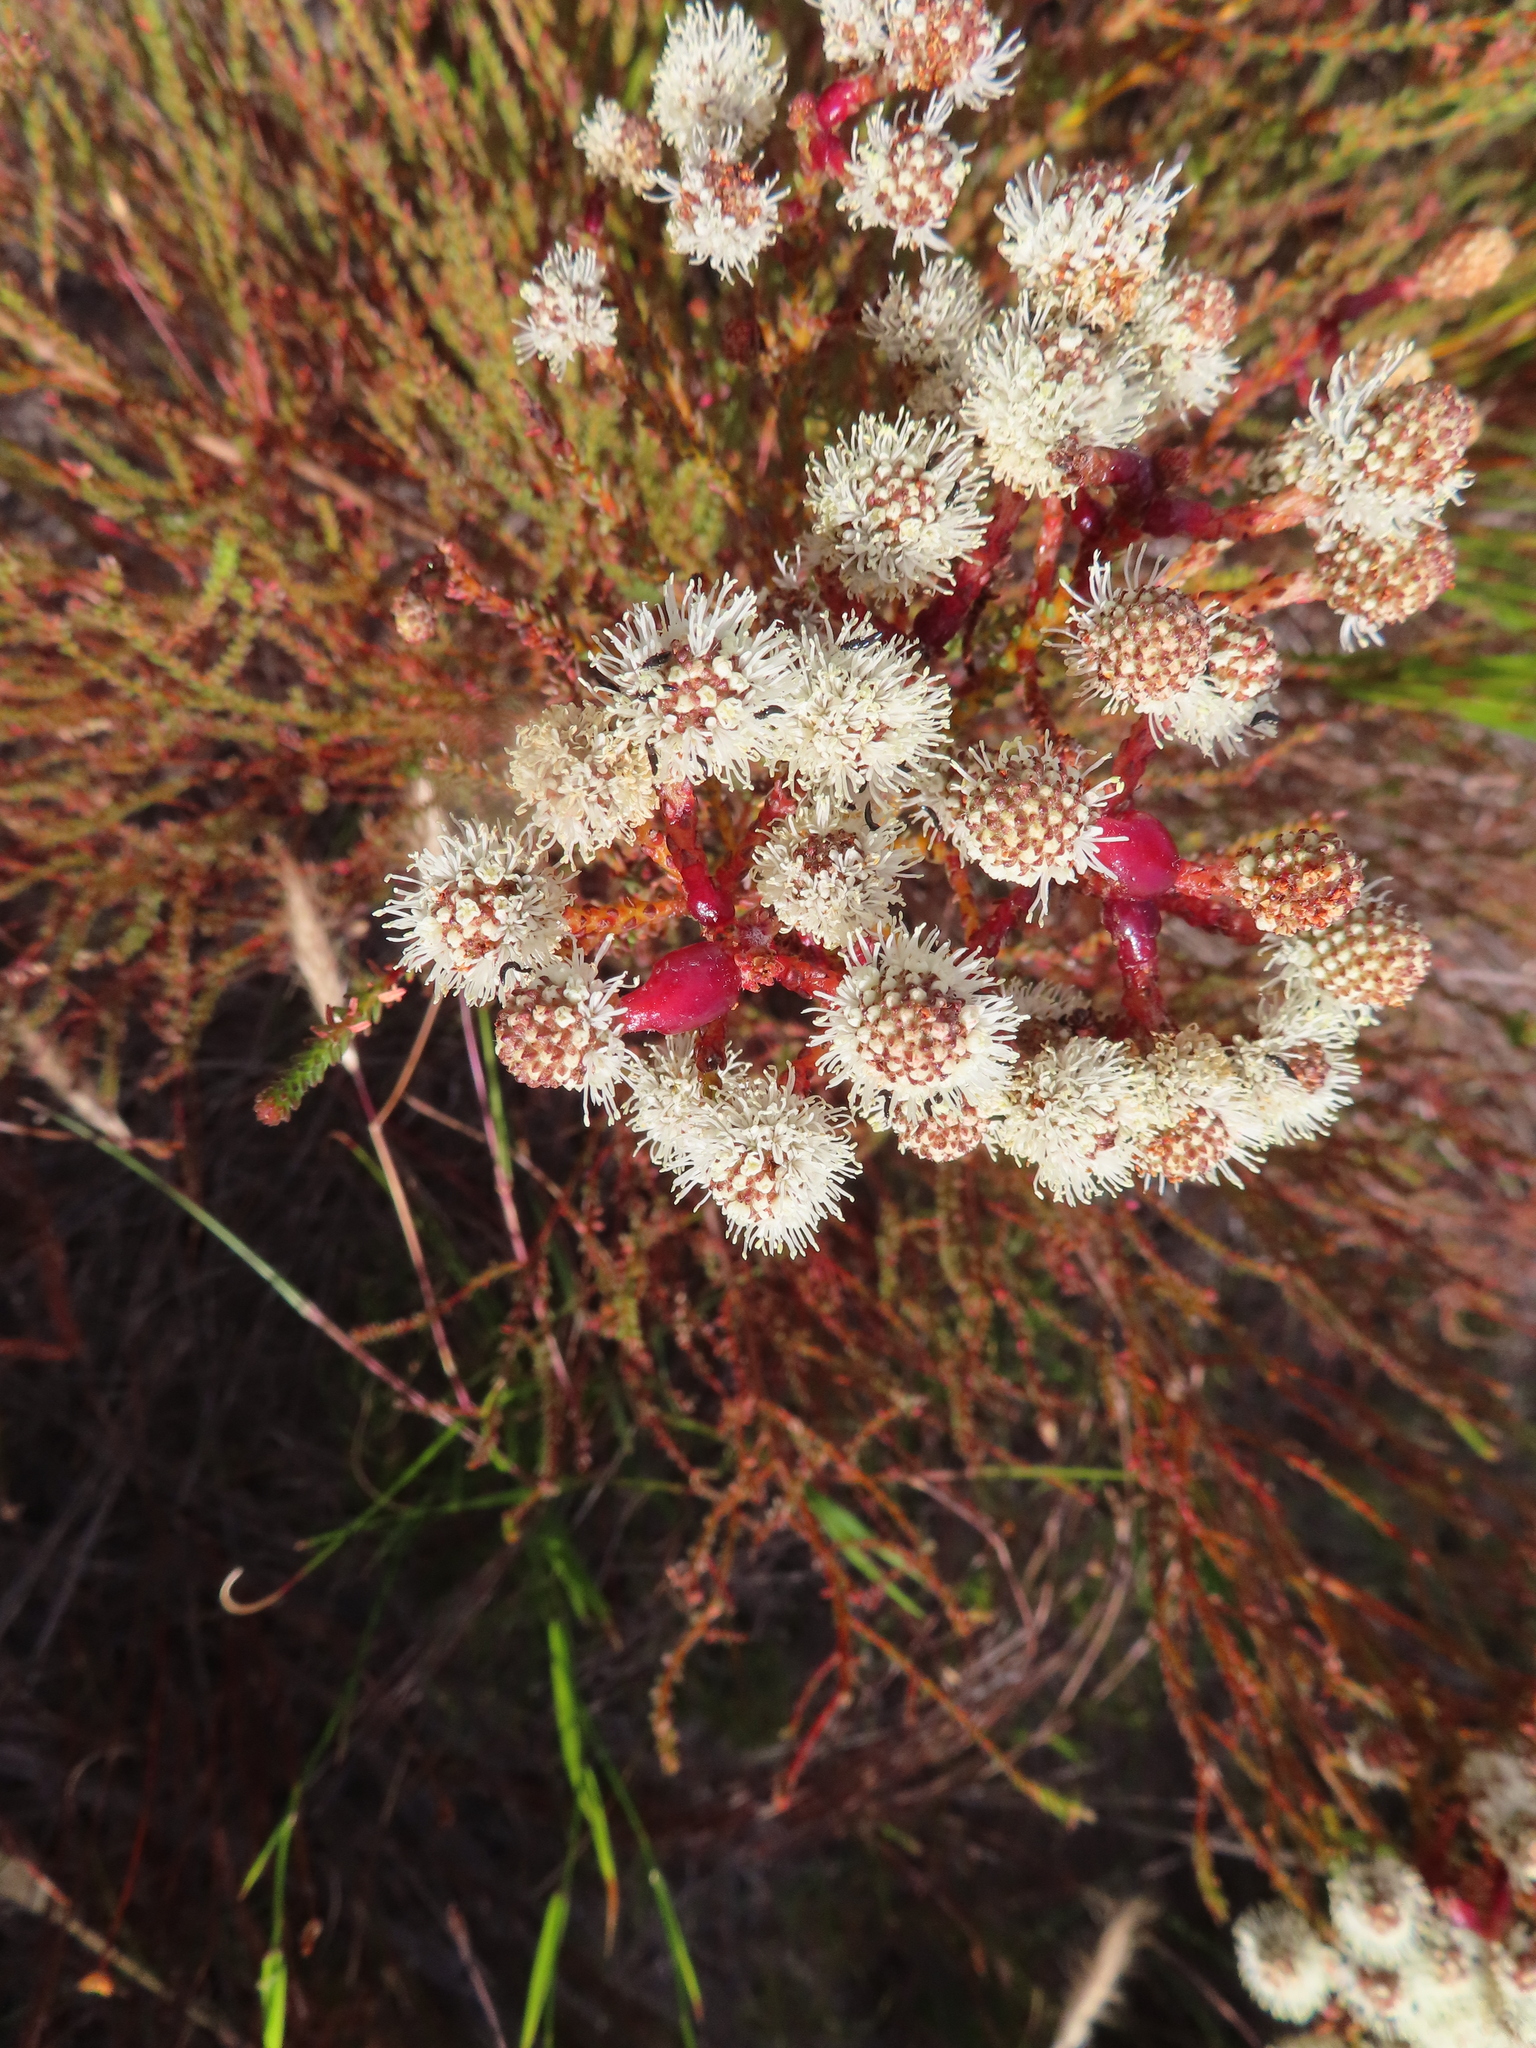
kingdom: Plantae
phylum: Tracheophyta
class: Magnoliopsida
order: Bruniales
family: Bruniaceae
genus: Berzelia
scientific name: Berzelia abrotanoides
